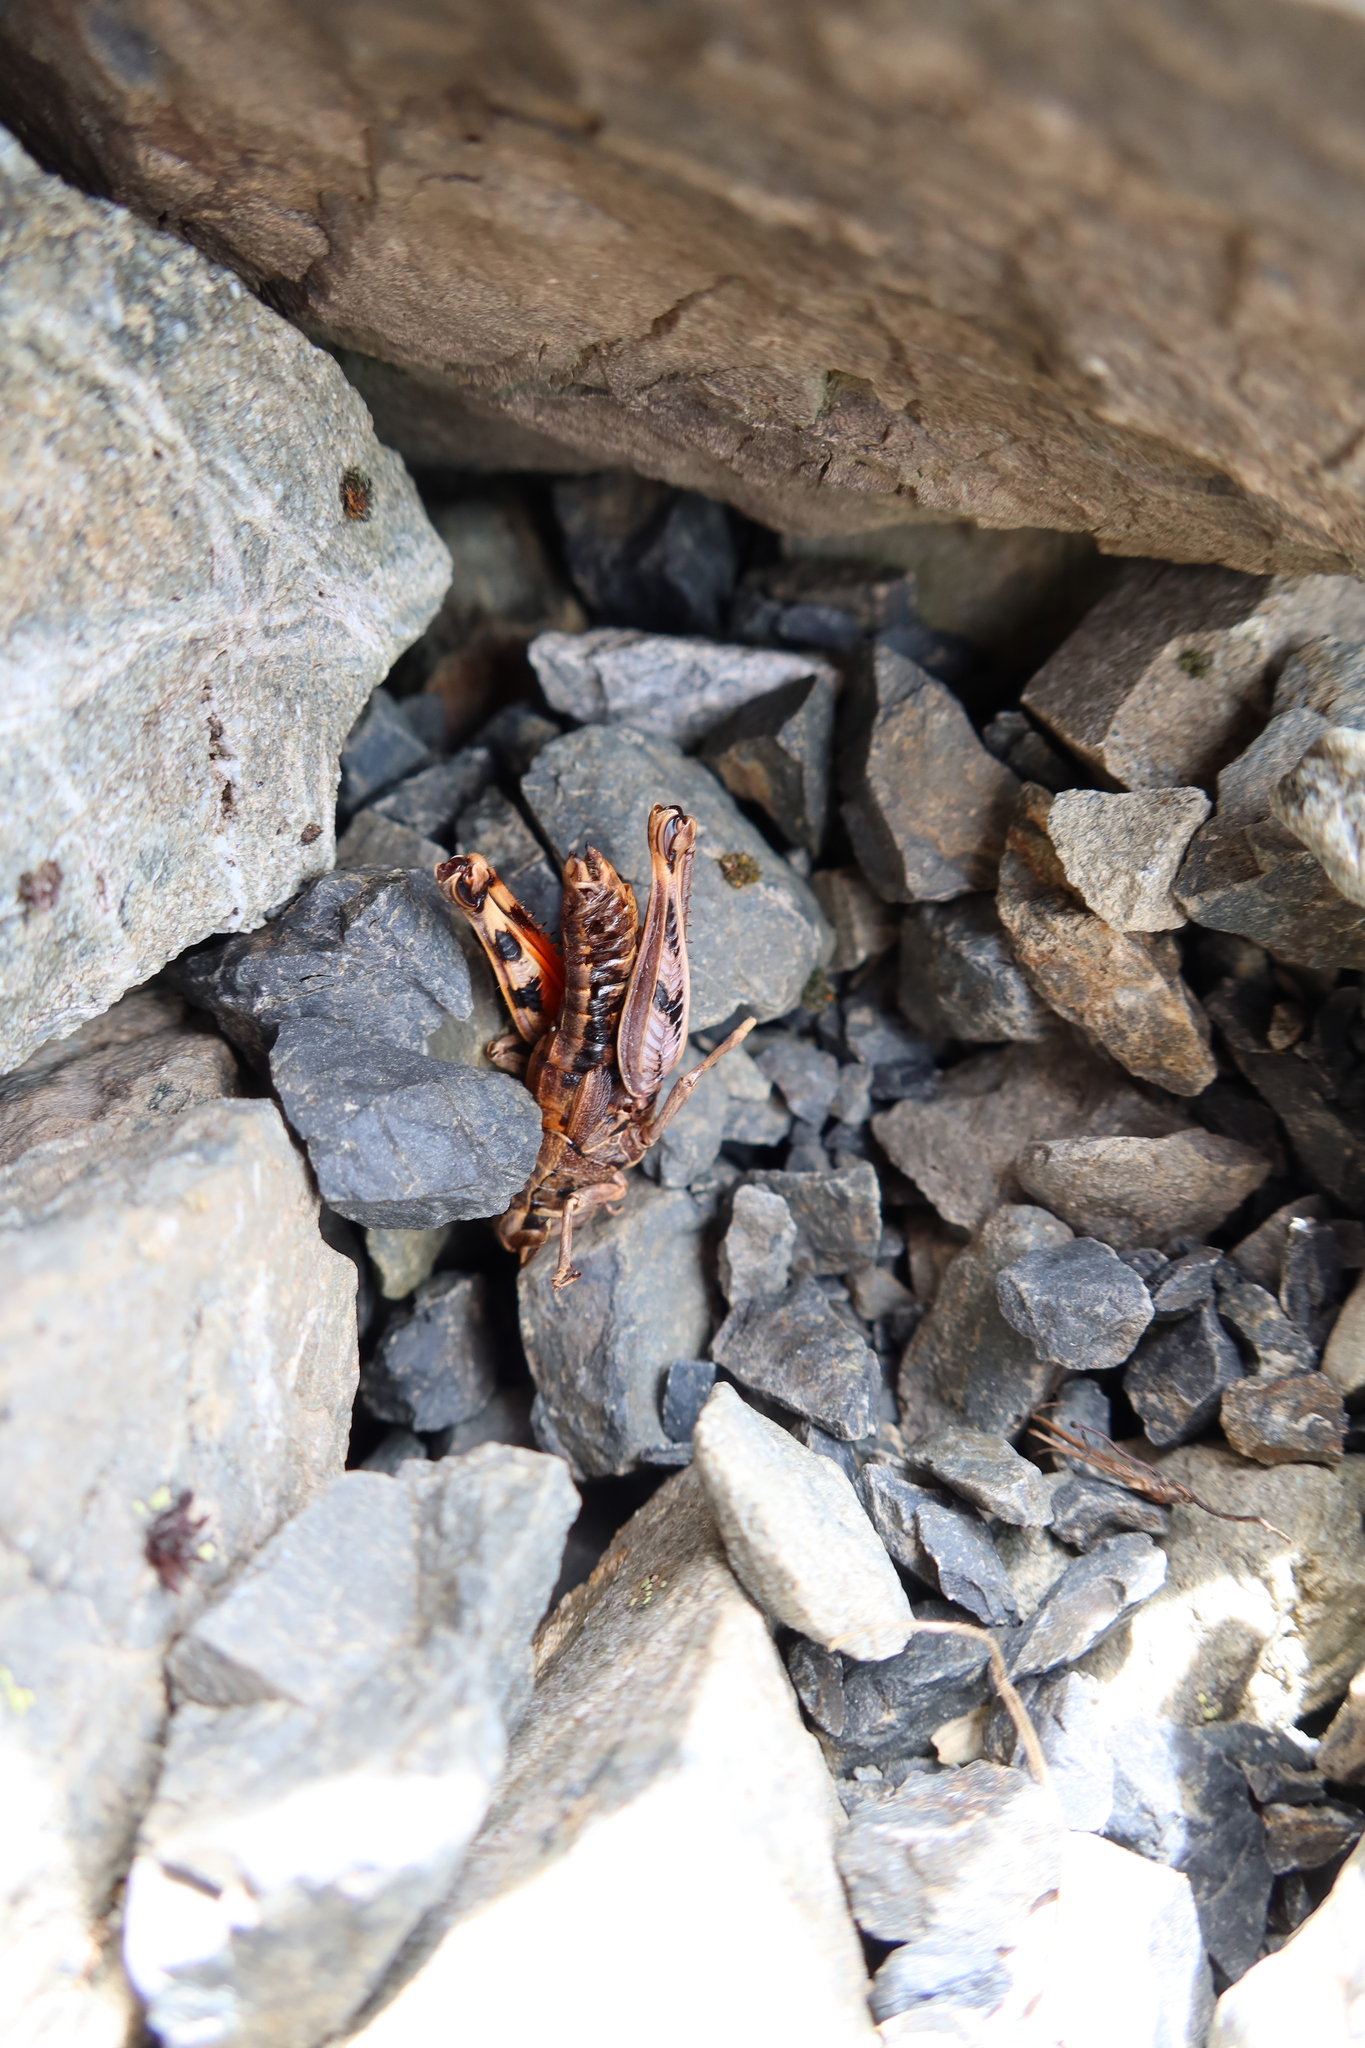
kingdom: Animalia
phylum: Arthropoda
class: Insecta
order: Orthoptera
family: Acrididae
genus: Sigaus
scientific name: Sigaus australis
